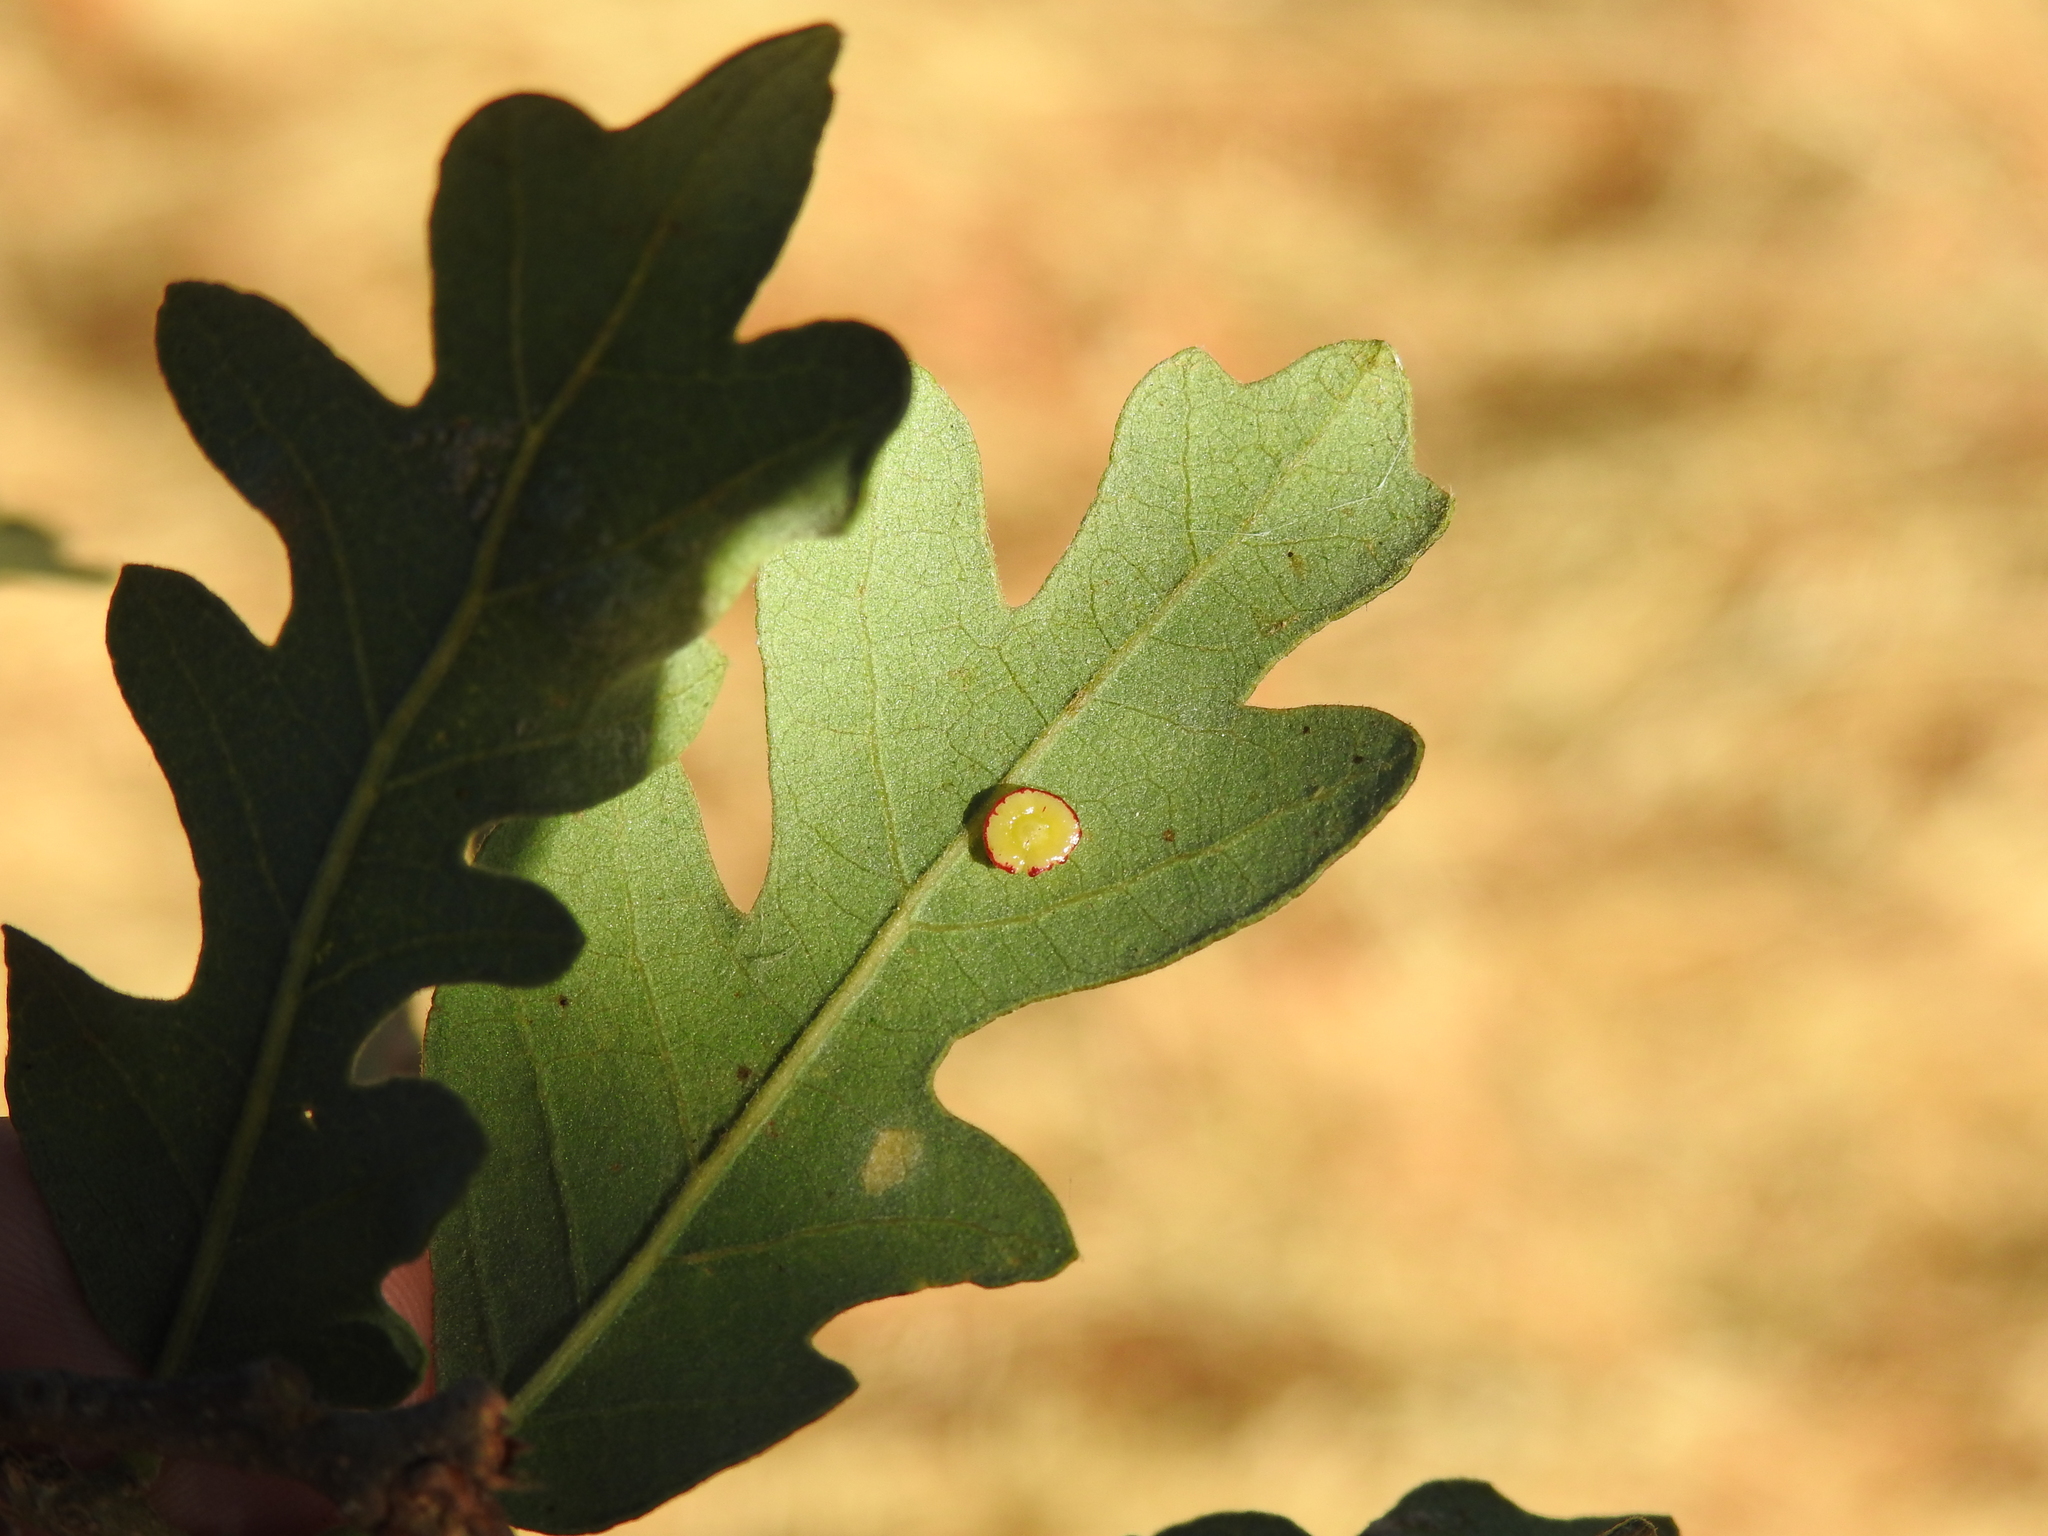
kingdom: Animalia
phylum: Arthropoda
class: Insecta
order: Hymenoptera
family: Cynipidae
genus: Andricus
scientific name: Andricus
